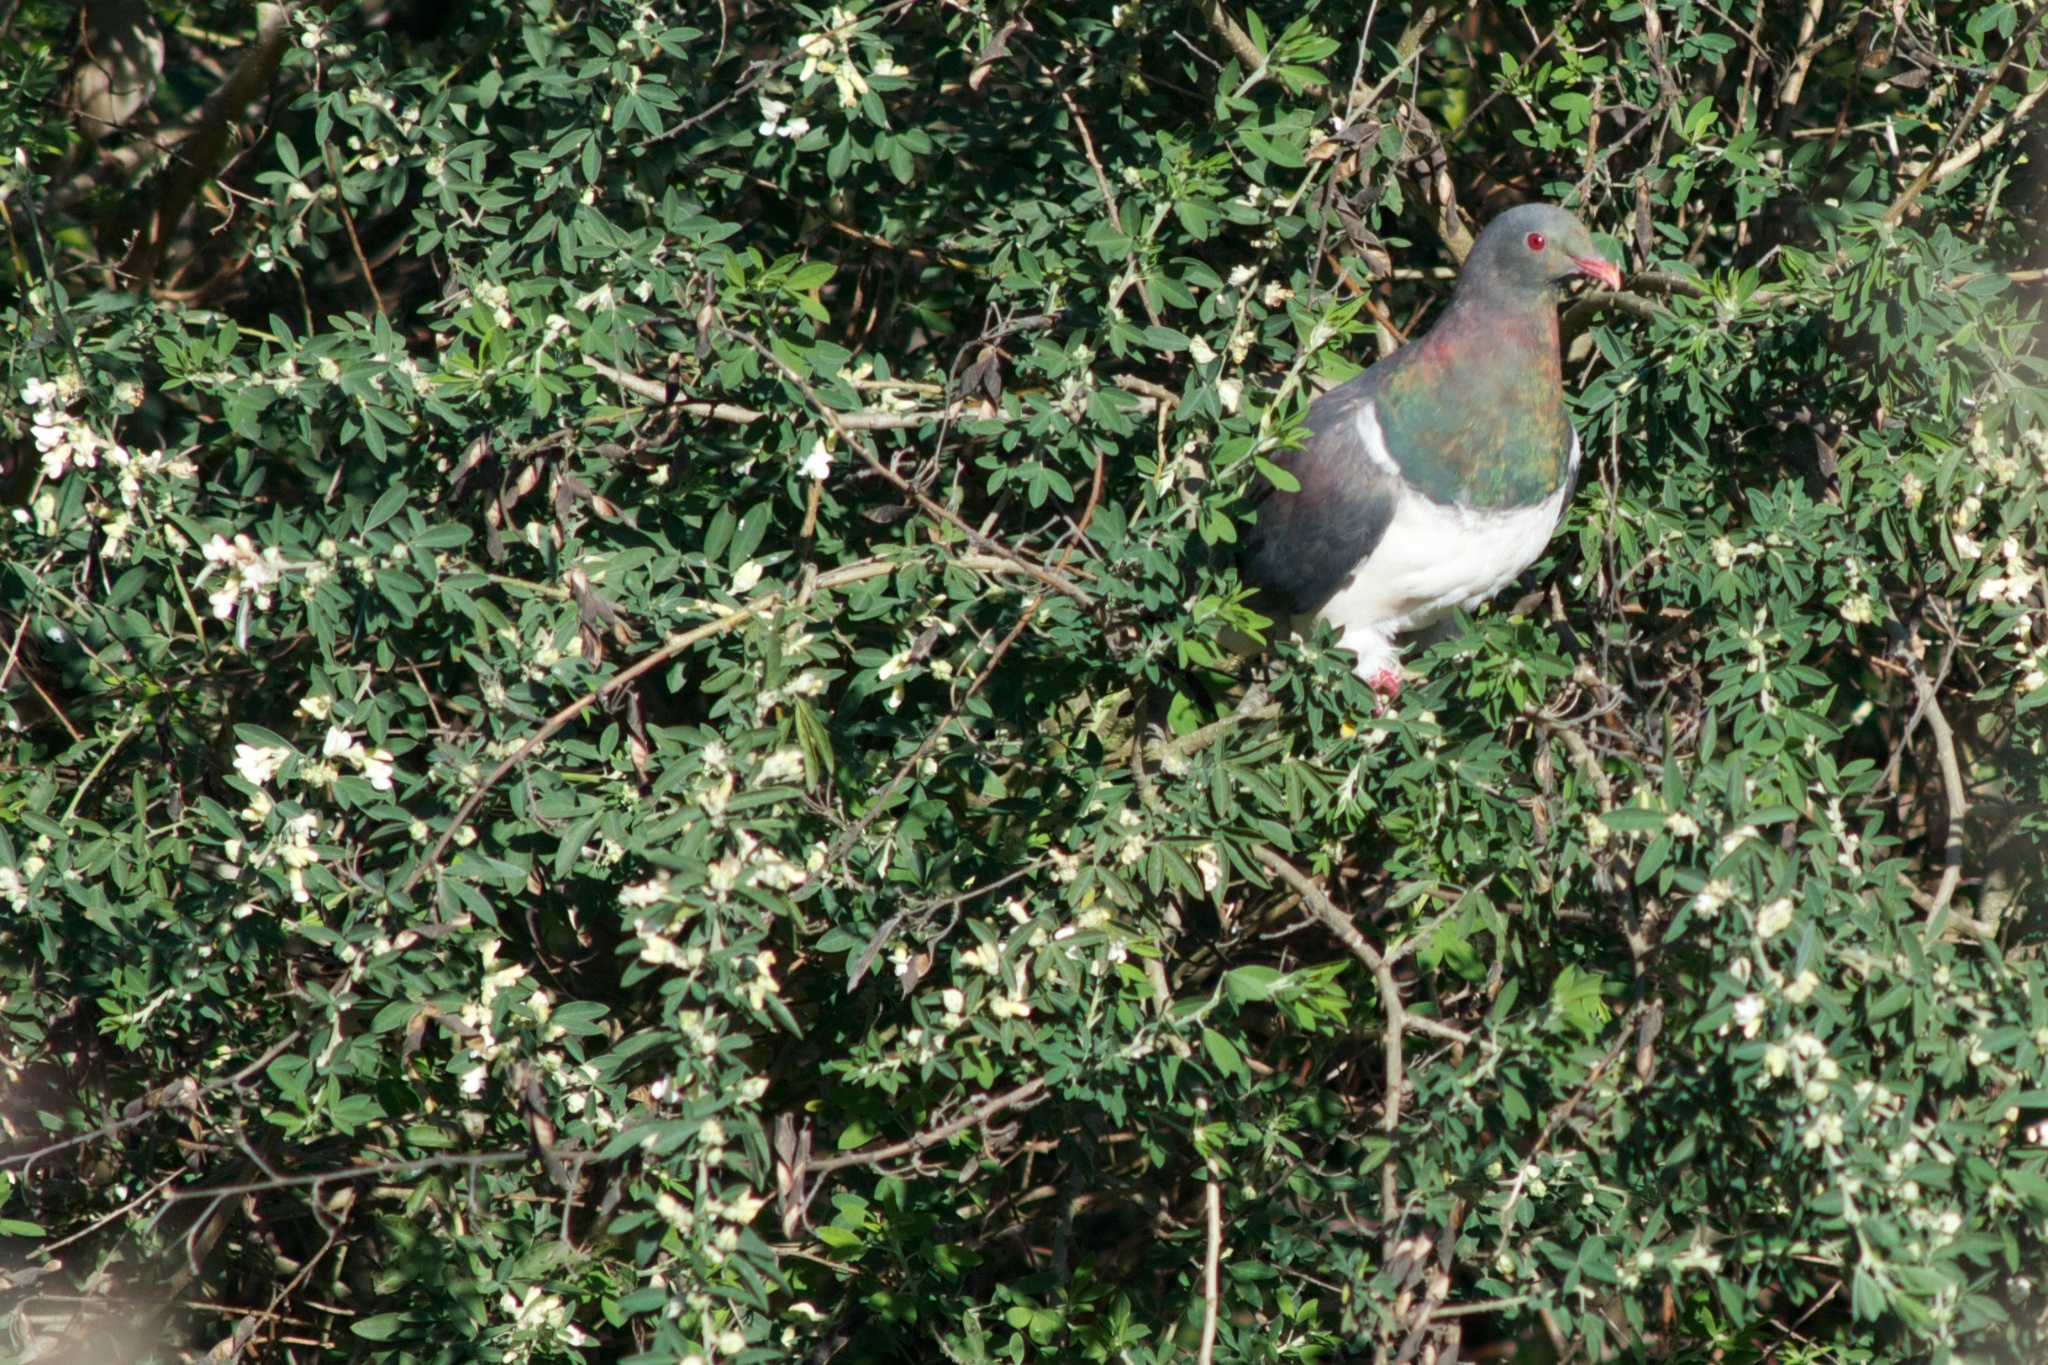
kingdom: Animalia
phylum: Chordata
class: Aves
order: Columbiformes
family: Columbidae
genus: Hemiphaga
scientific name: Hemiphaga novaeseelandiae
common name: New zealand pigeon
